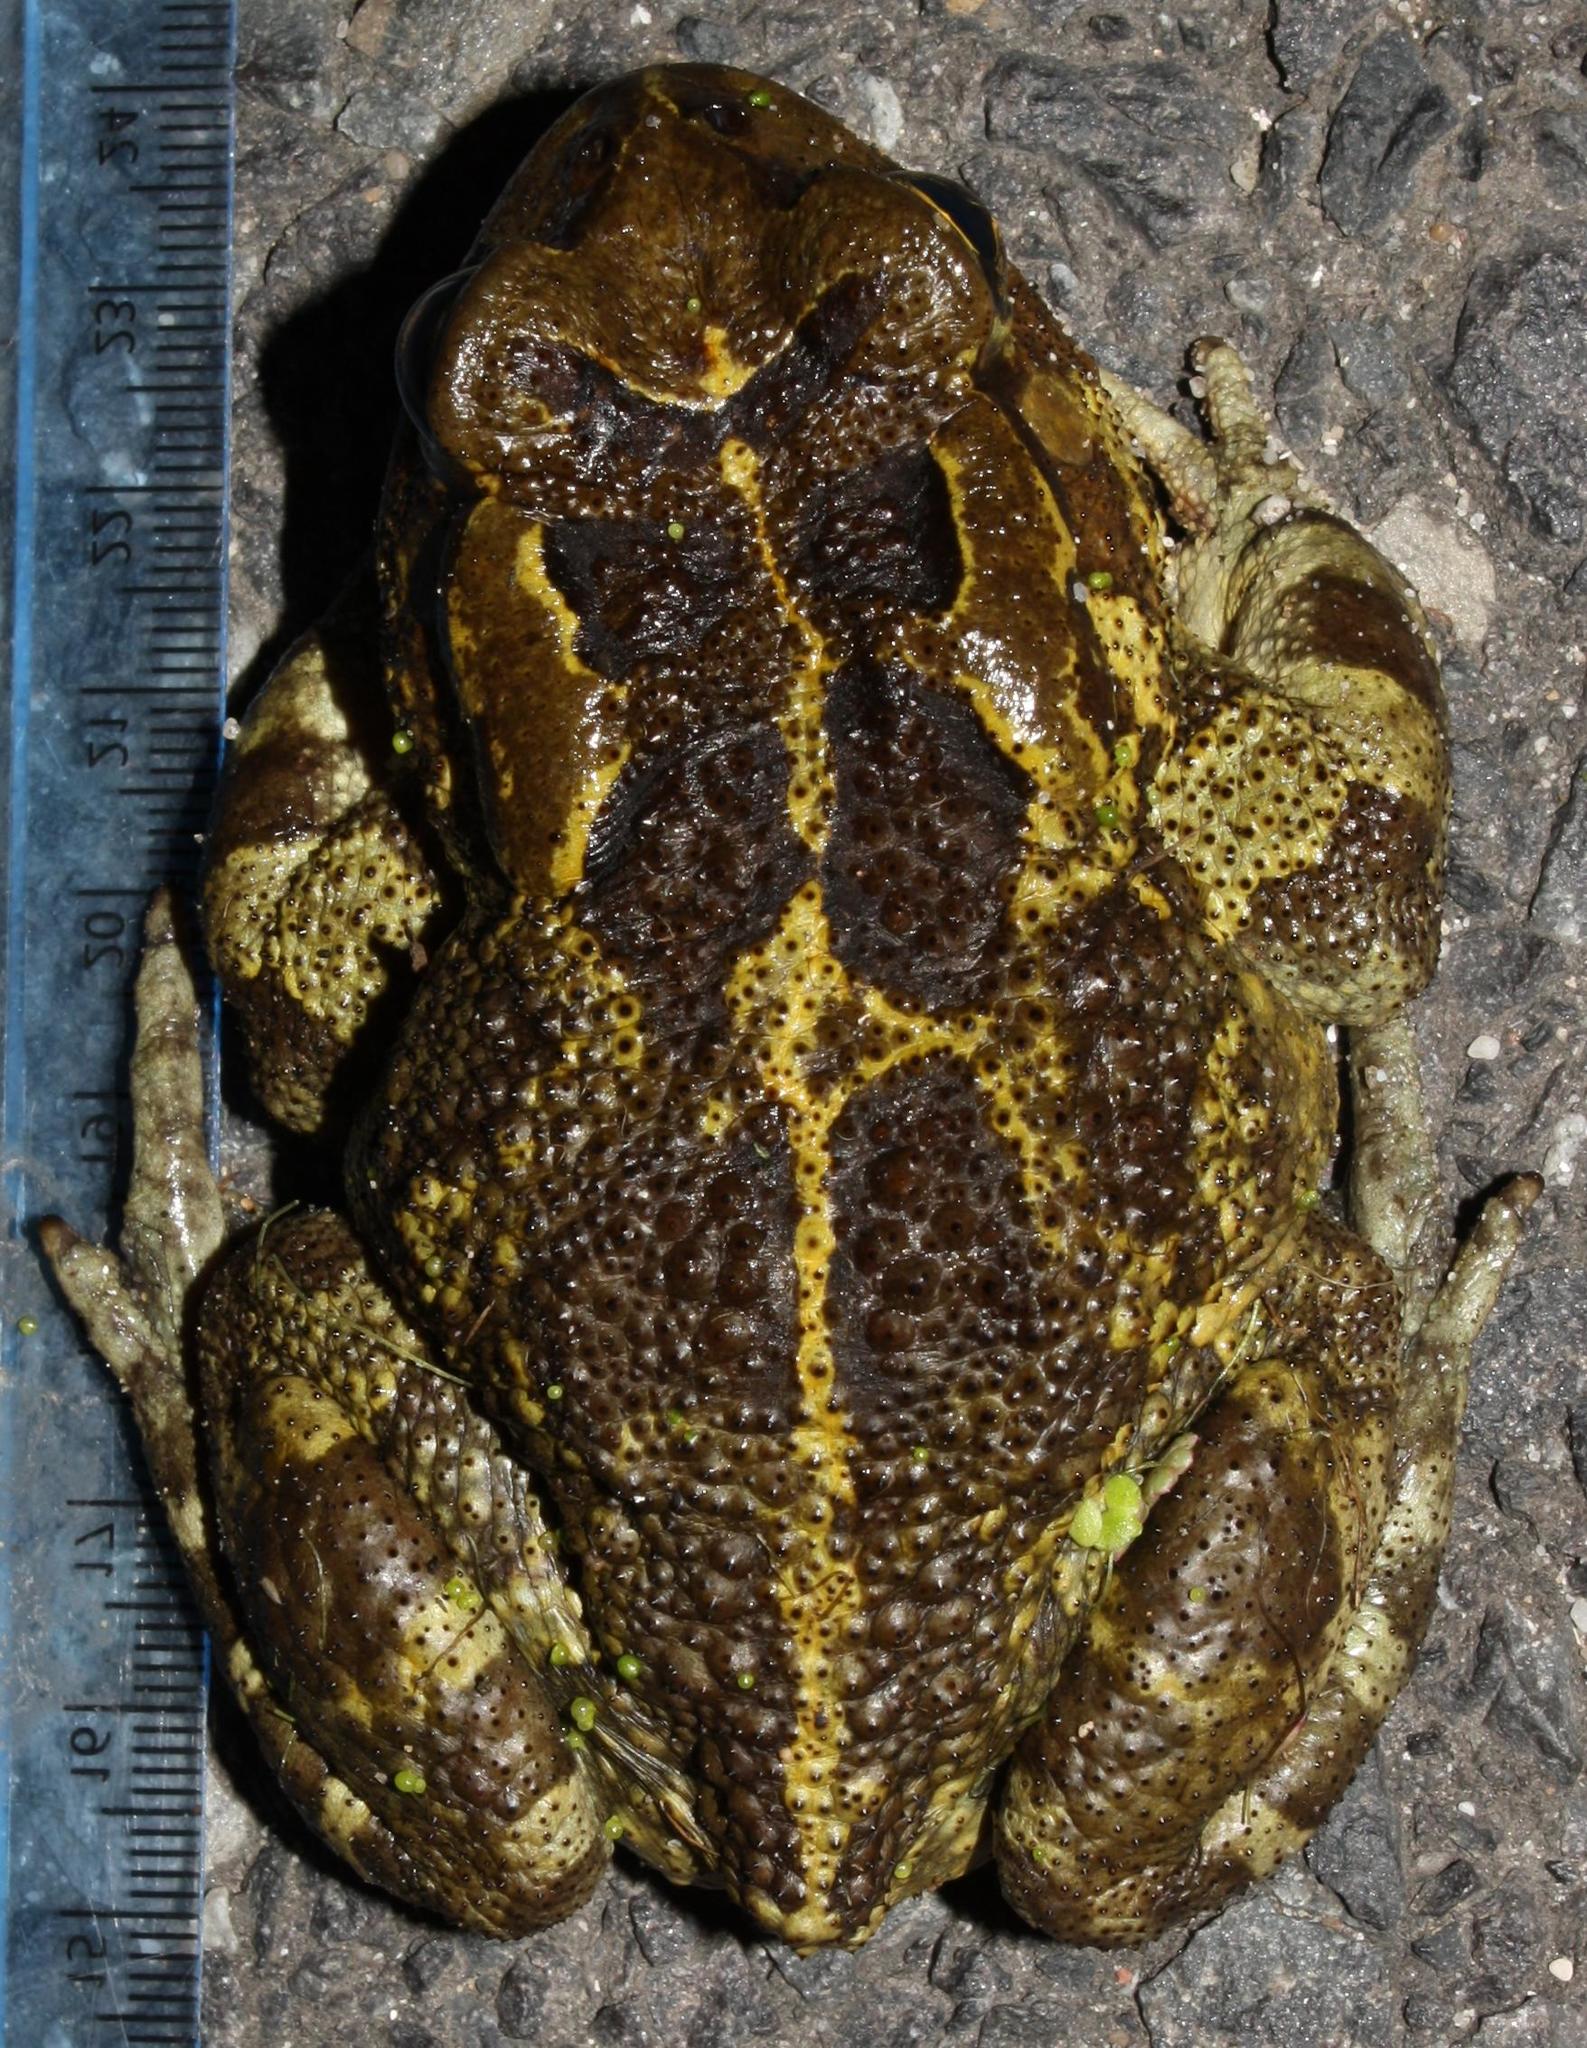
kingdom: Animalia
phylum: Chordata
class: Amphibia
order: Anura
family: Bufonidae
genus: Sclerophrys
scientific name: Sclerophrys pantherina
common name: Panther toad
